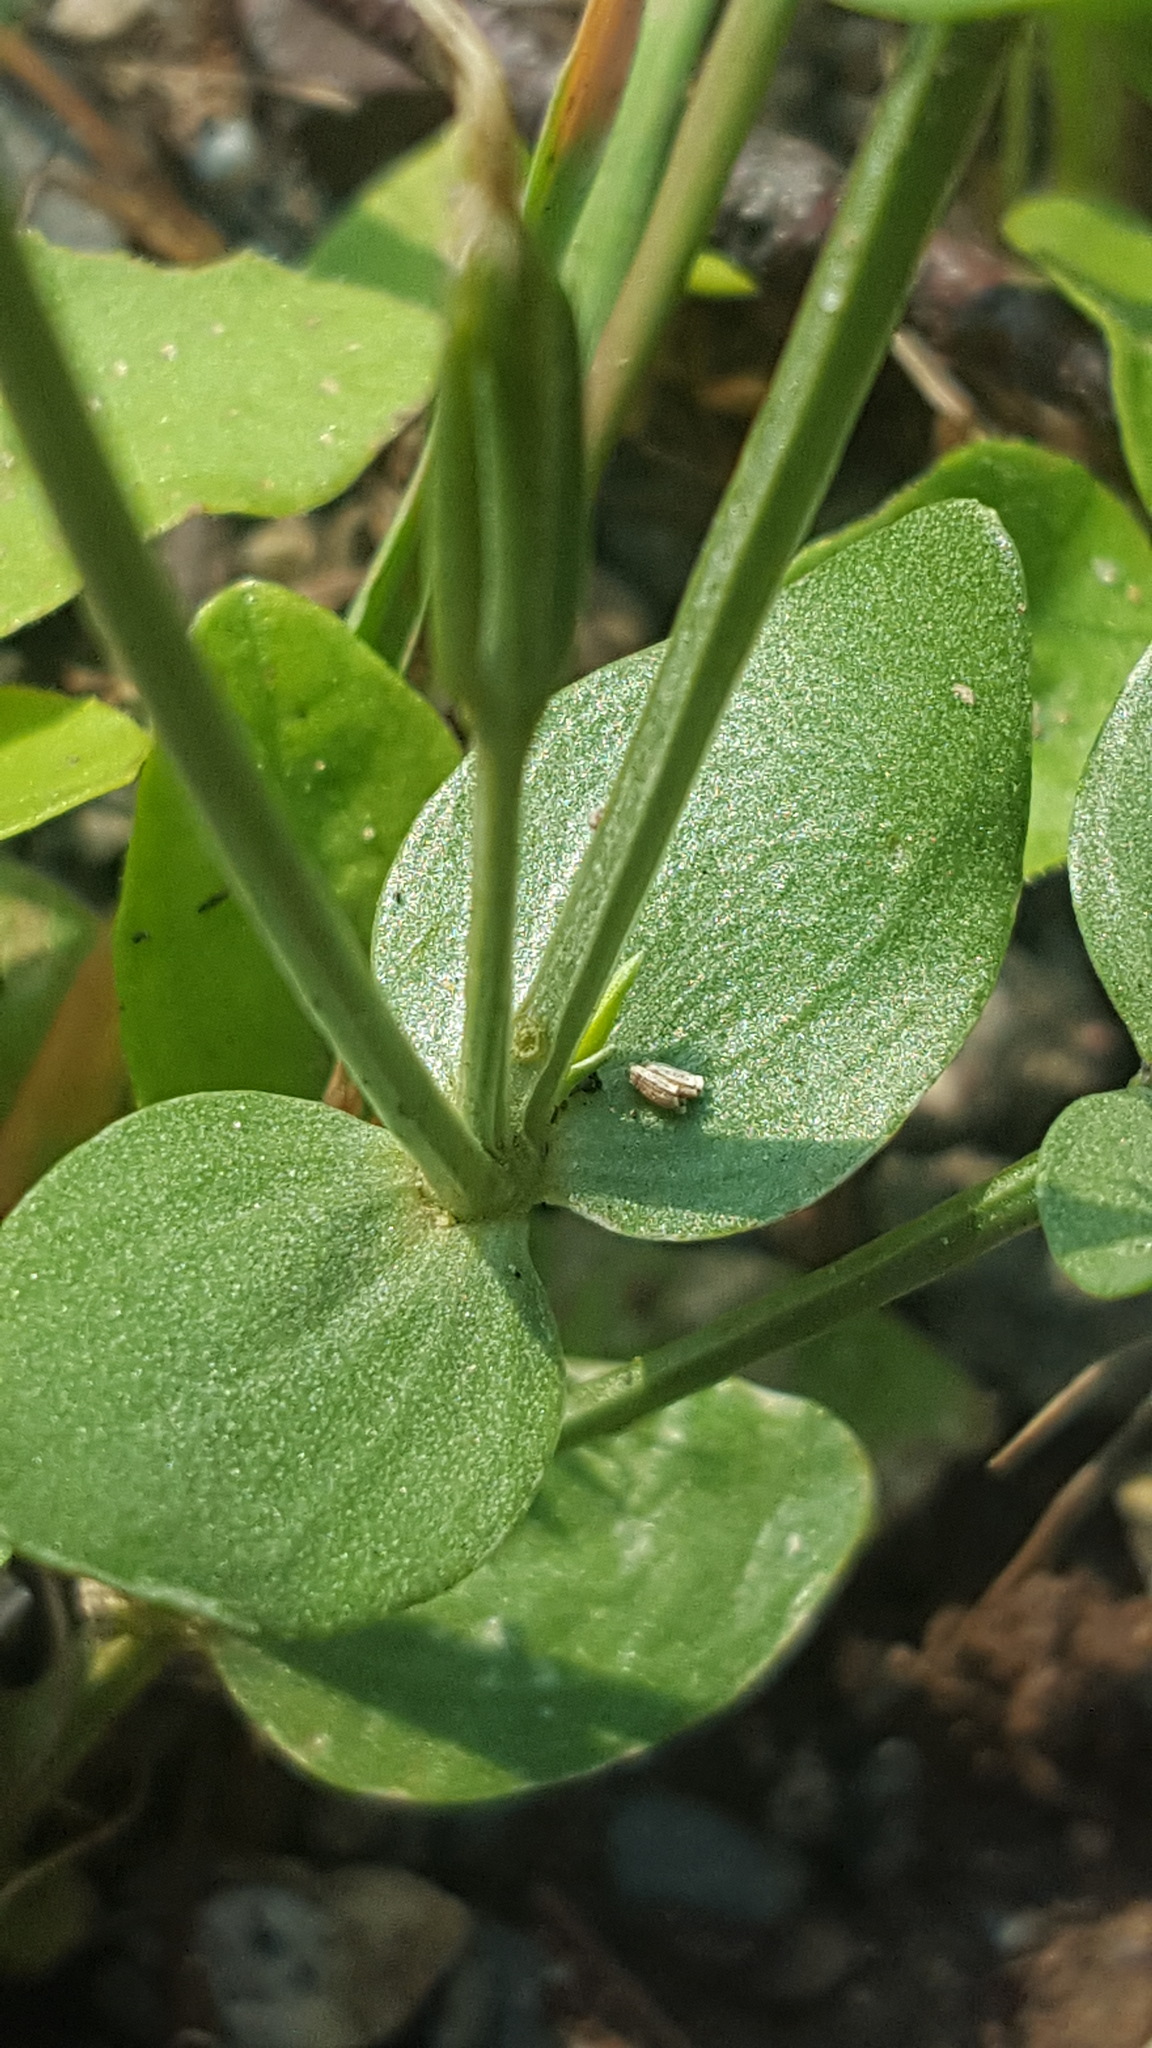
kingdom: Plantae
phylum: Tracheophyta
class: Magnoliopsida
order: Gentianales
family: Gentianaceae
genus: Centaurium
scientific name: Centaurium pulchellum
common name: Lesser centaury
